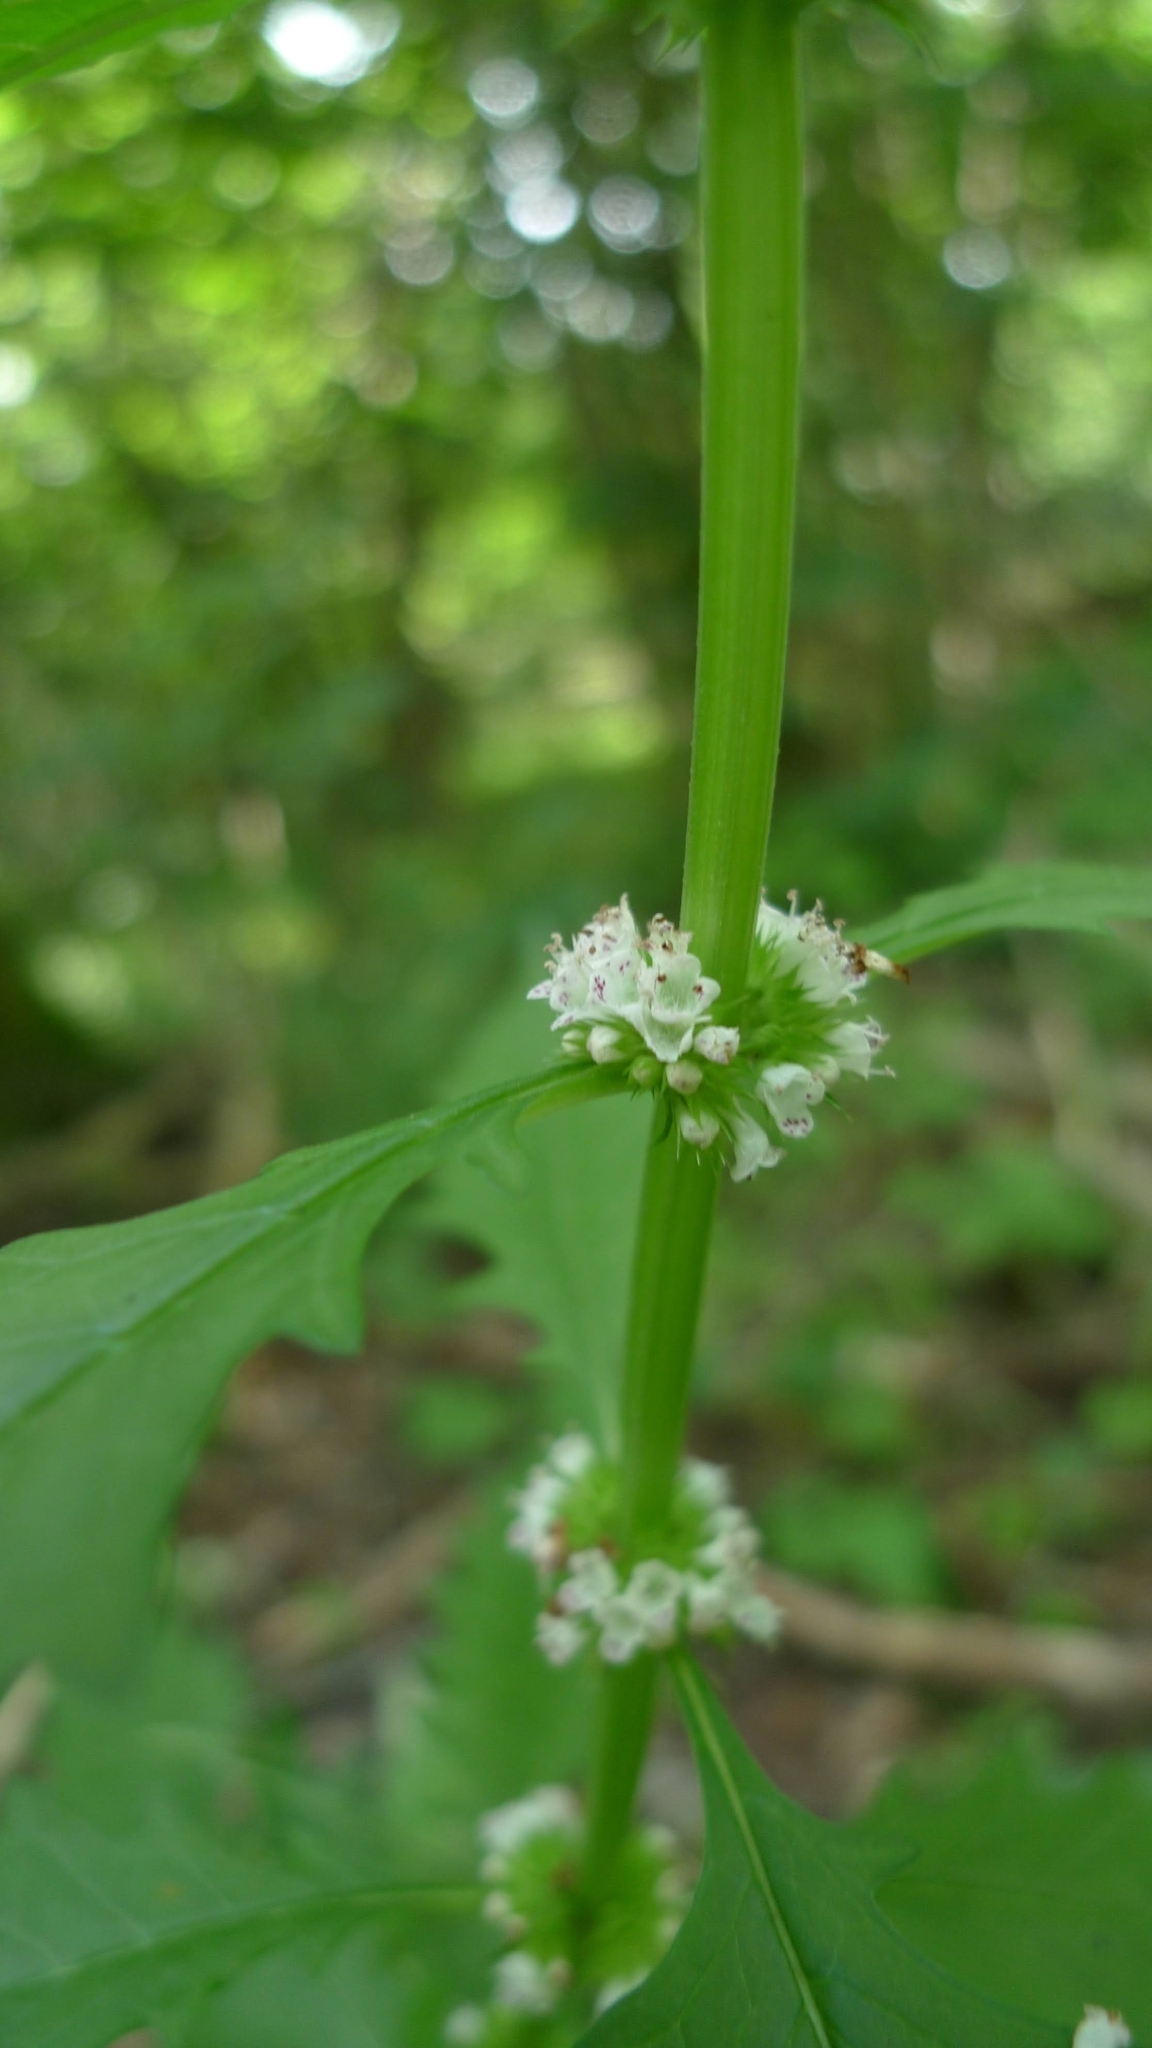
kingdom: Plantae
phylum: Tracheophyta
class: Magnoliopsida
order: Lamiales
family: Lamiaceae
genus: Lycopus
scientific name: Lycopus europaeus
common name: European bugleweed
